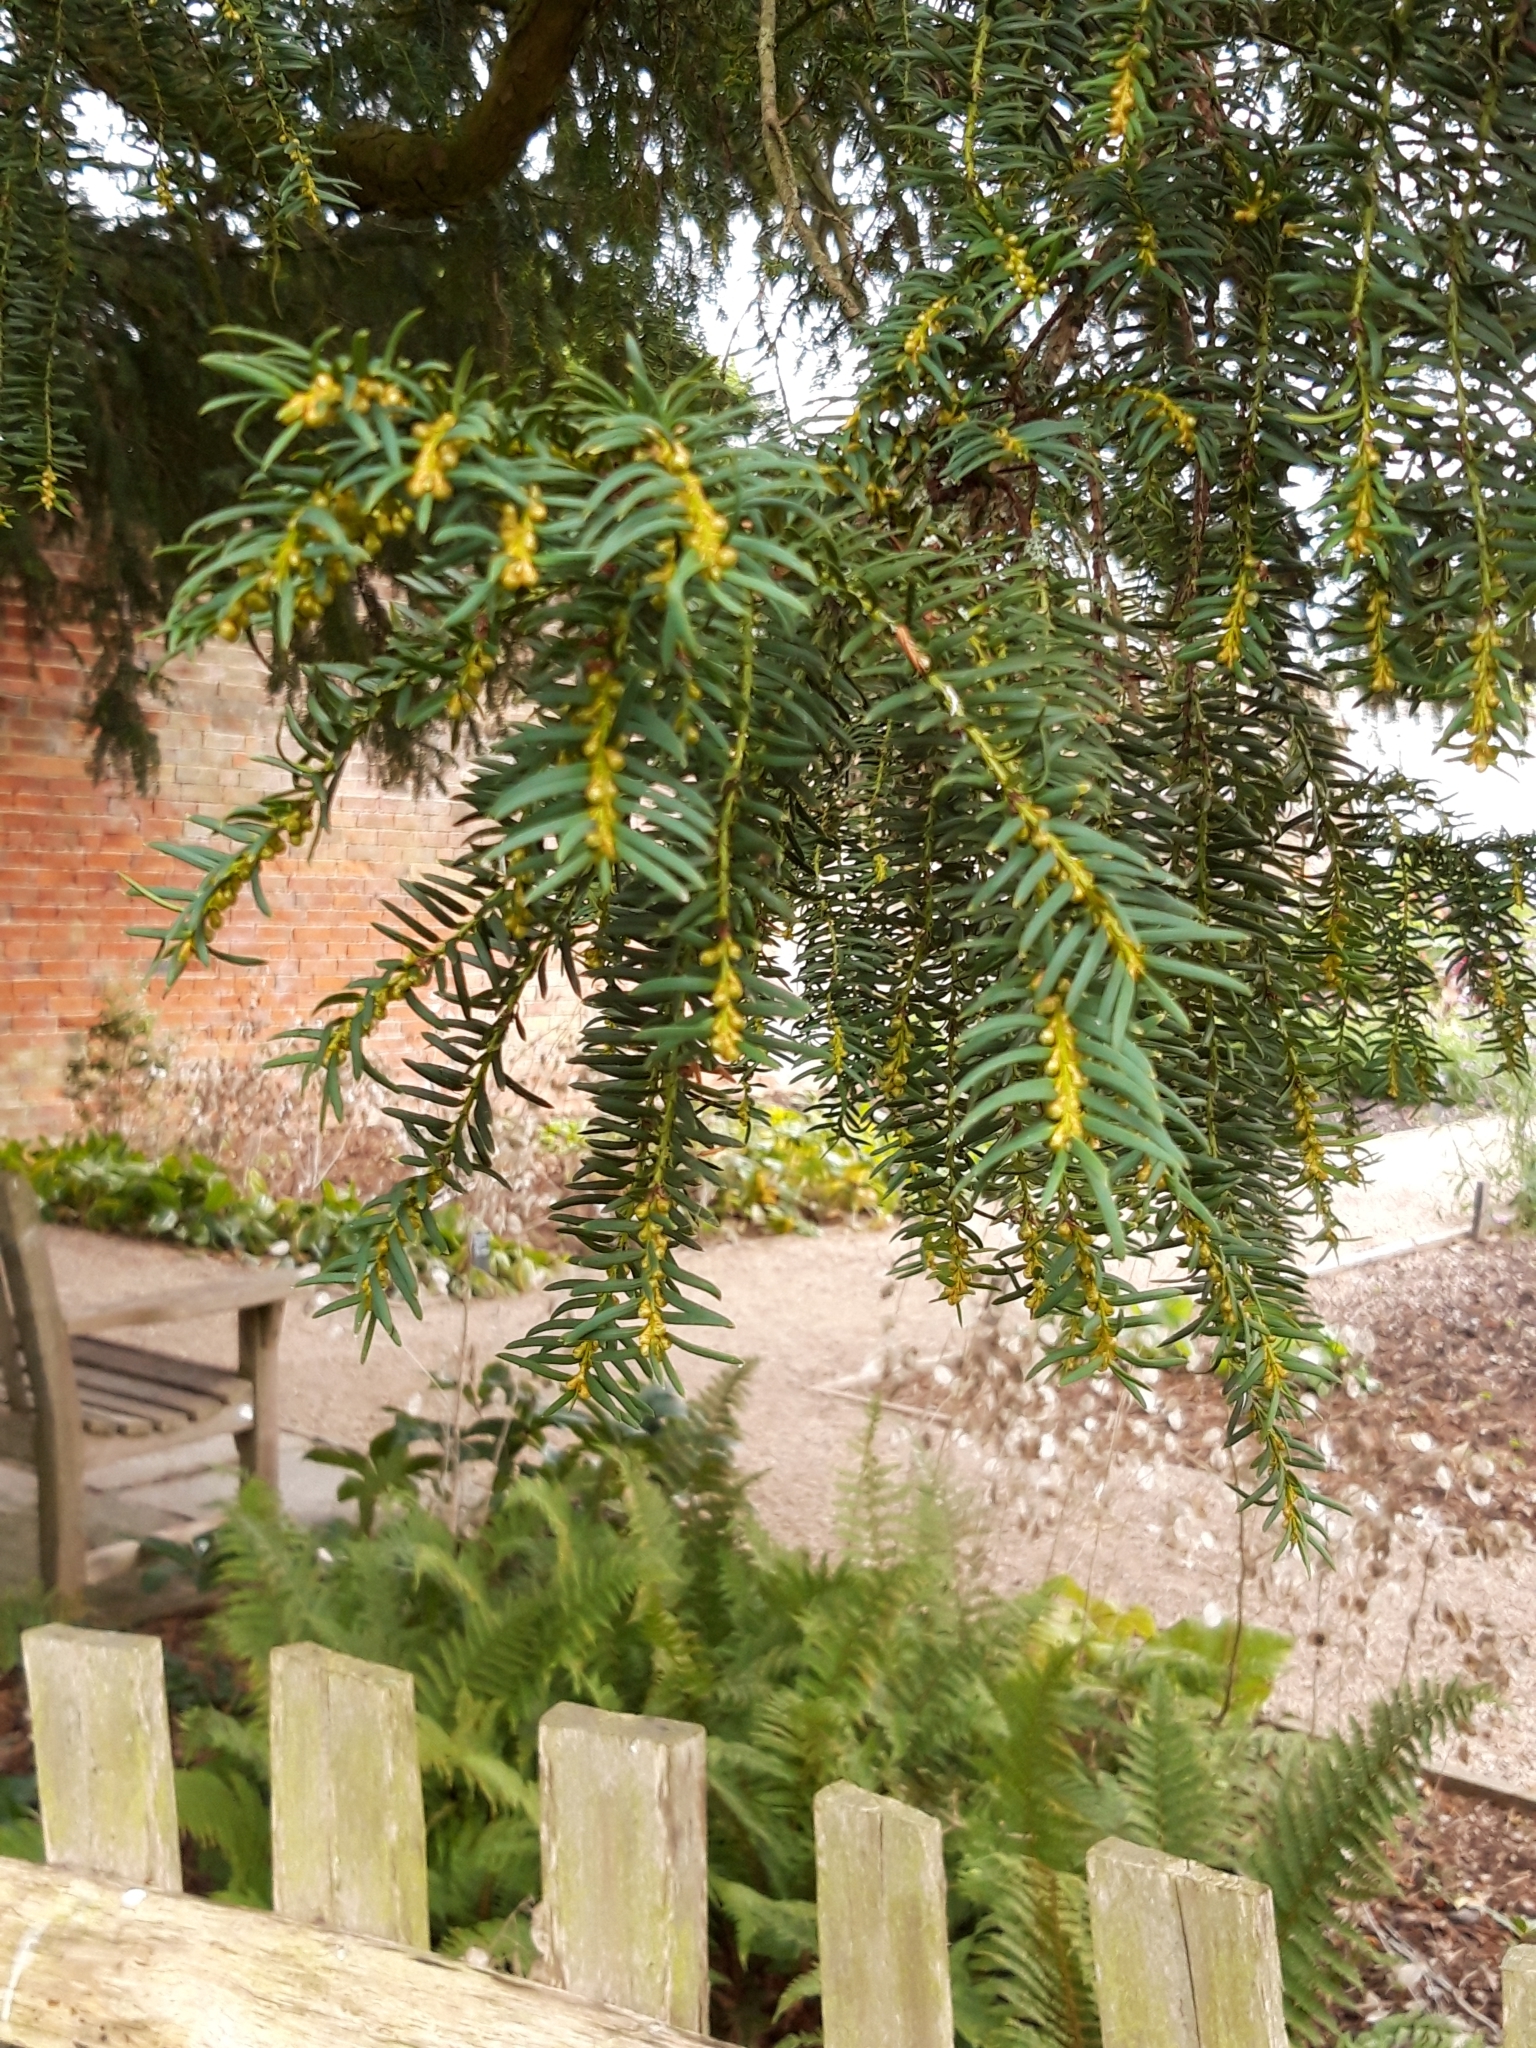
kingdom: Plantae
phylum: Tracheophyta
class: Pinopsida
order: Pinales
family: Taxaceae
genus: Taxus
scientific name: Taxus baccata
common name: Yew
